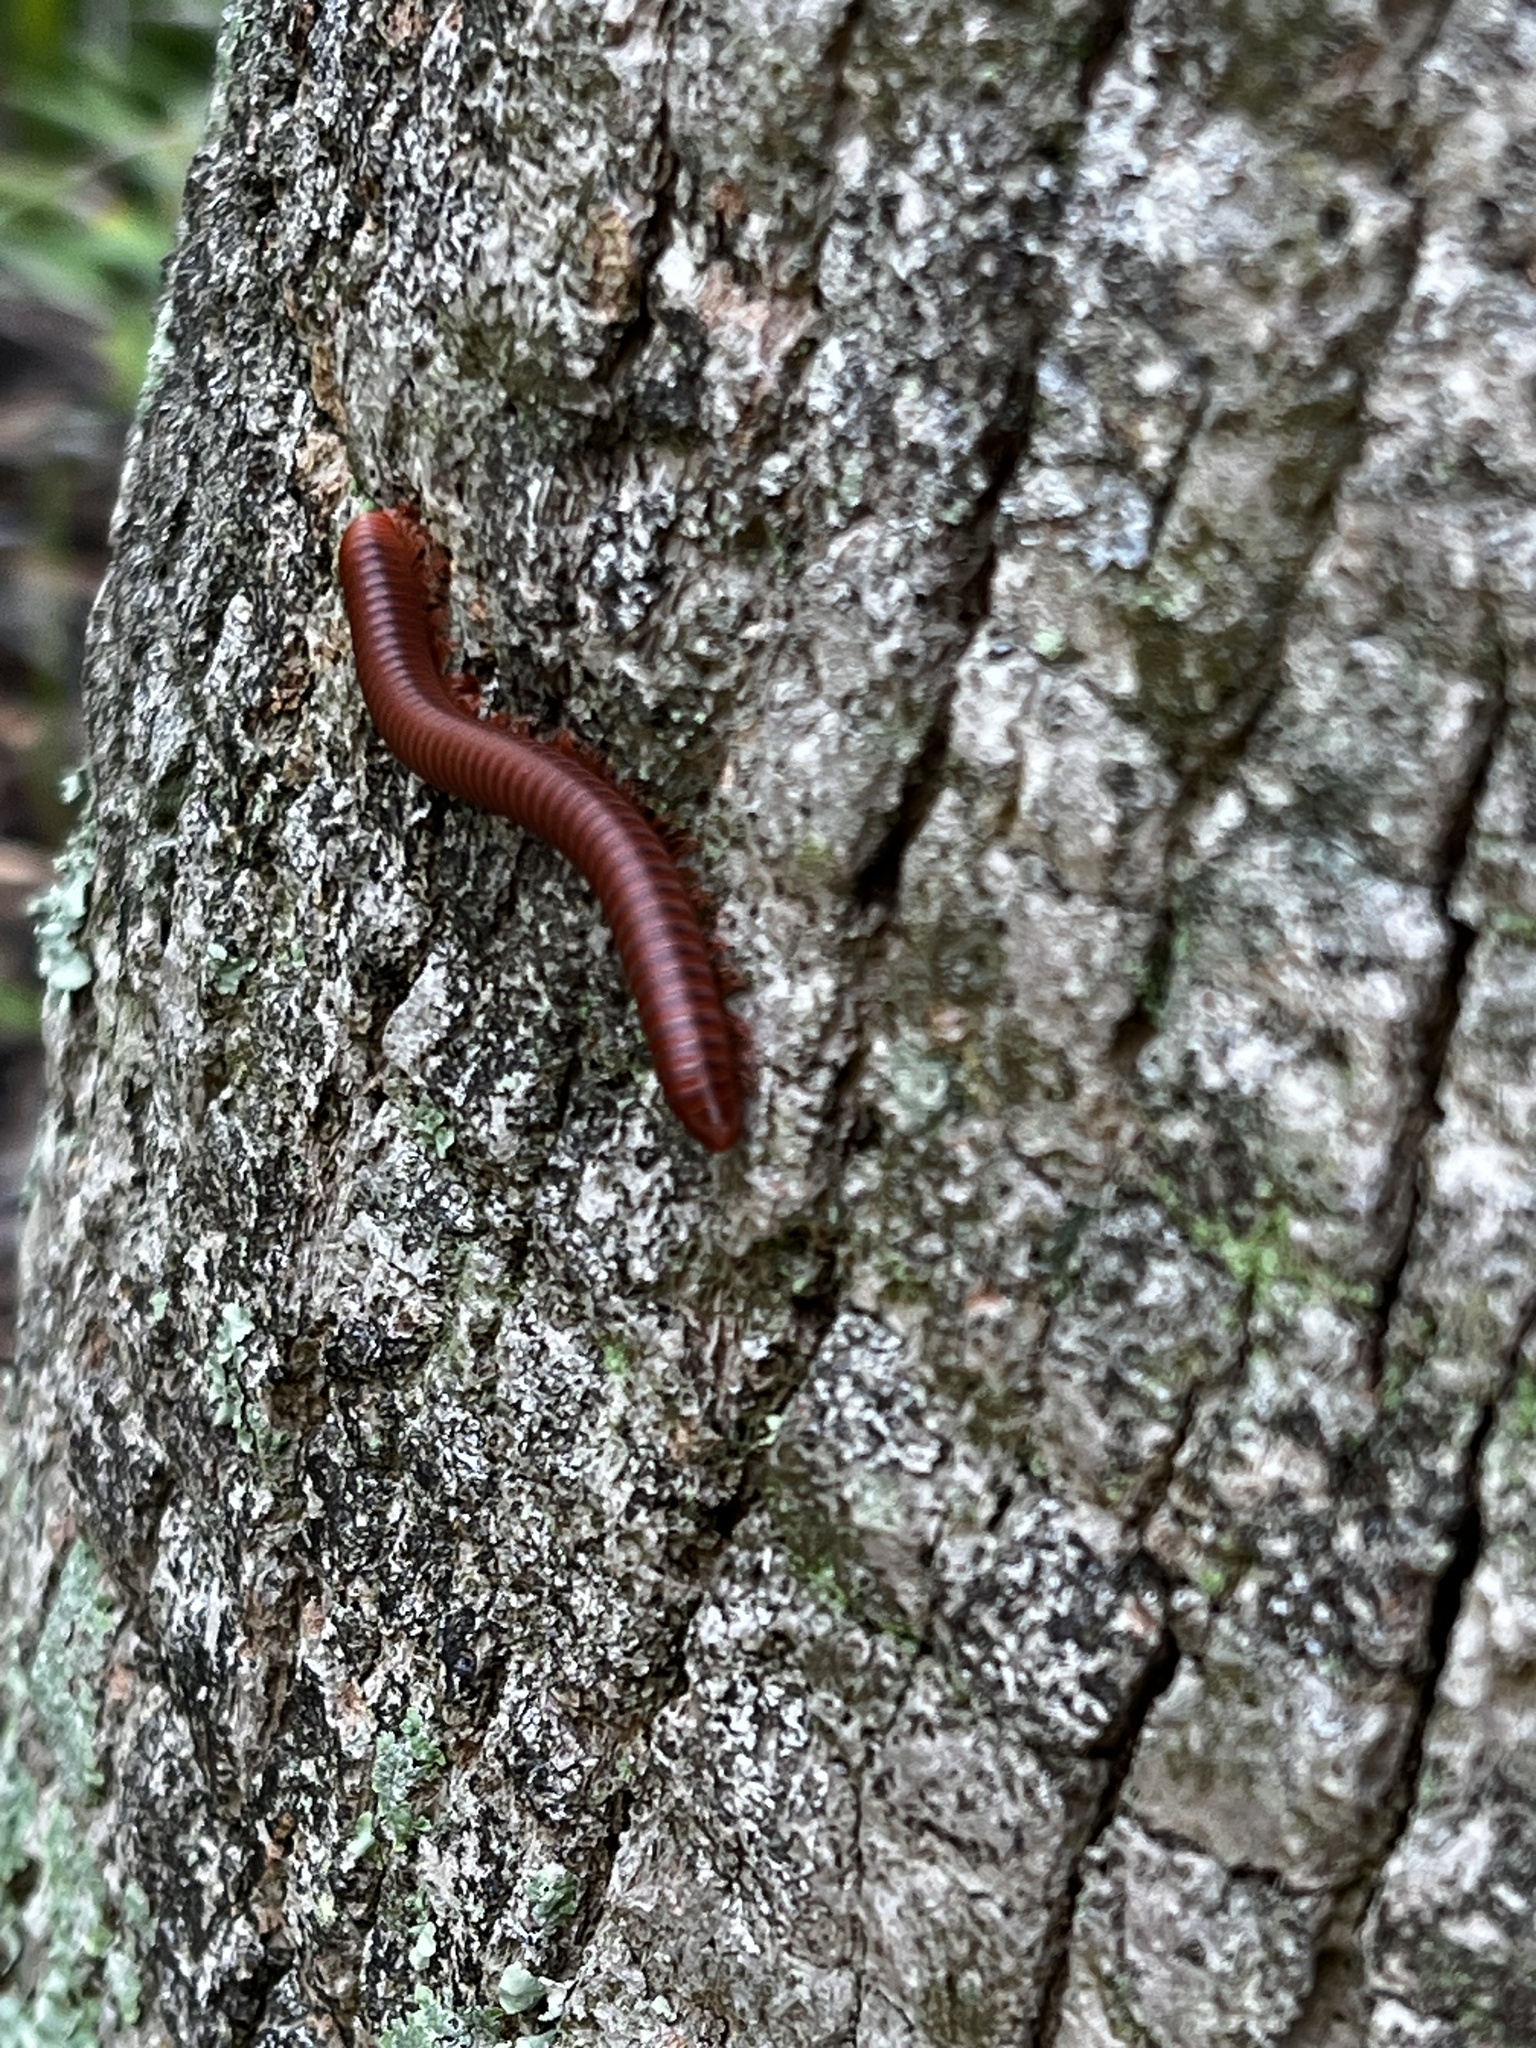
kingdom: Animalia
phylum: Arthropoda
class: Diplopoda
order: Spirobolida
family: Pachybolidae
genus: Trigoniulus
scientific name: Trigoniulus corallinus
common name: Millipede
